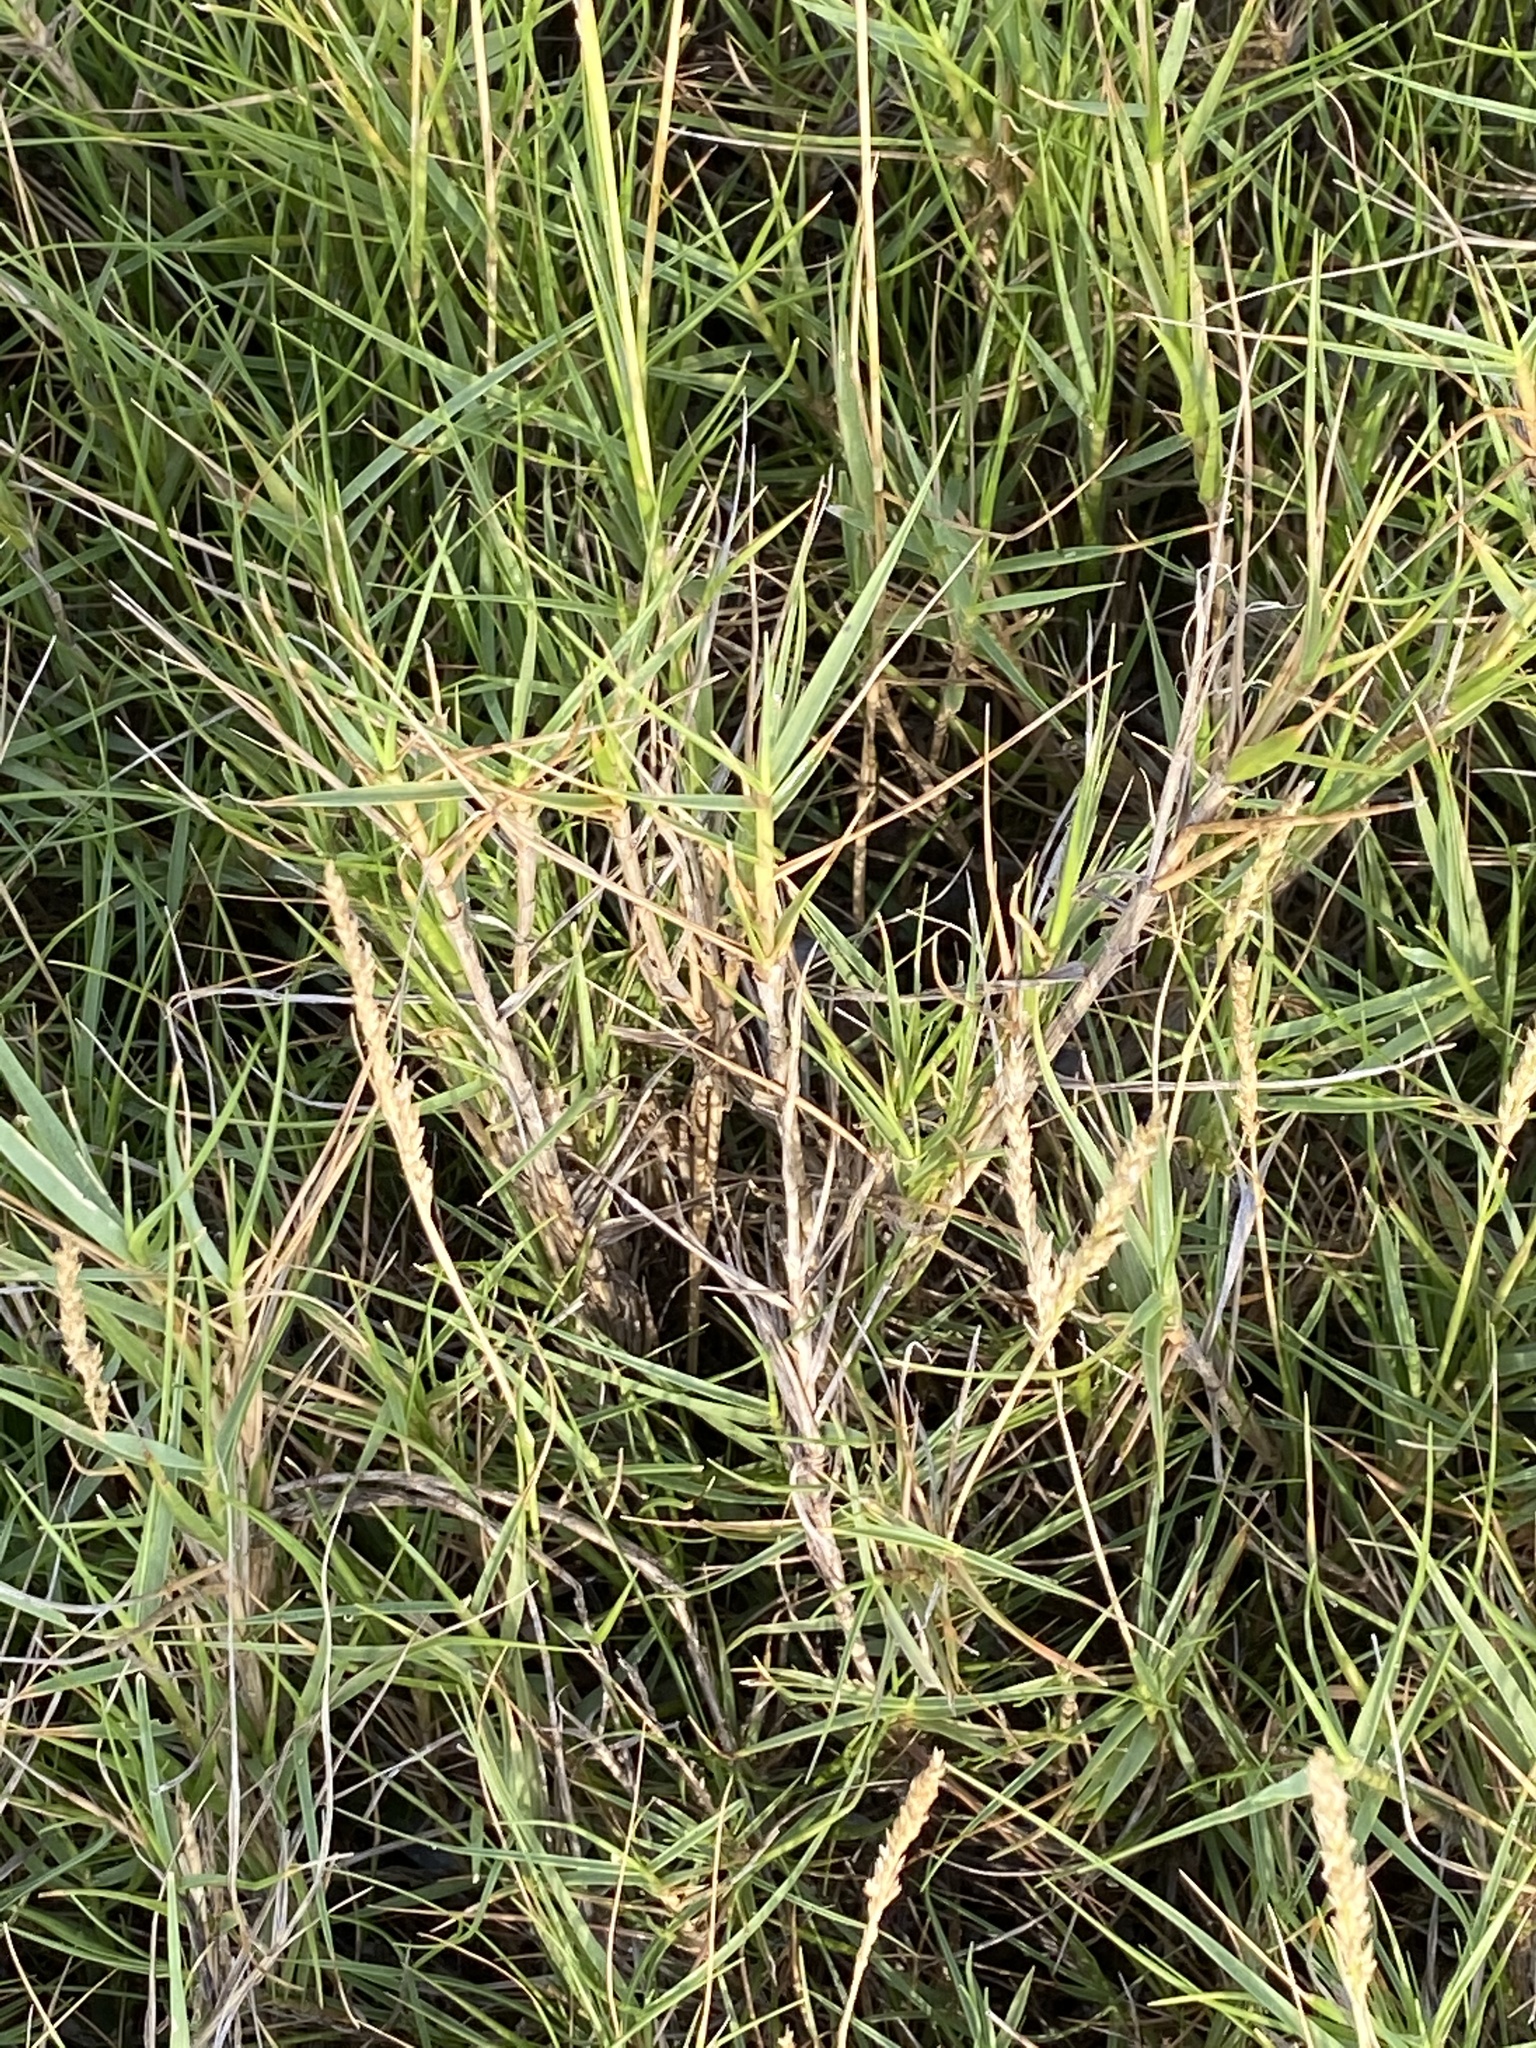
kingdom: Plantae
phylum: Tracheophyta
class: Liliopsida
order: Poales
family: Poaceae
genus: Sporobolus
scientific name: Sporobolus virginicus
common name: Beach dropseed
